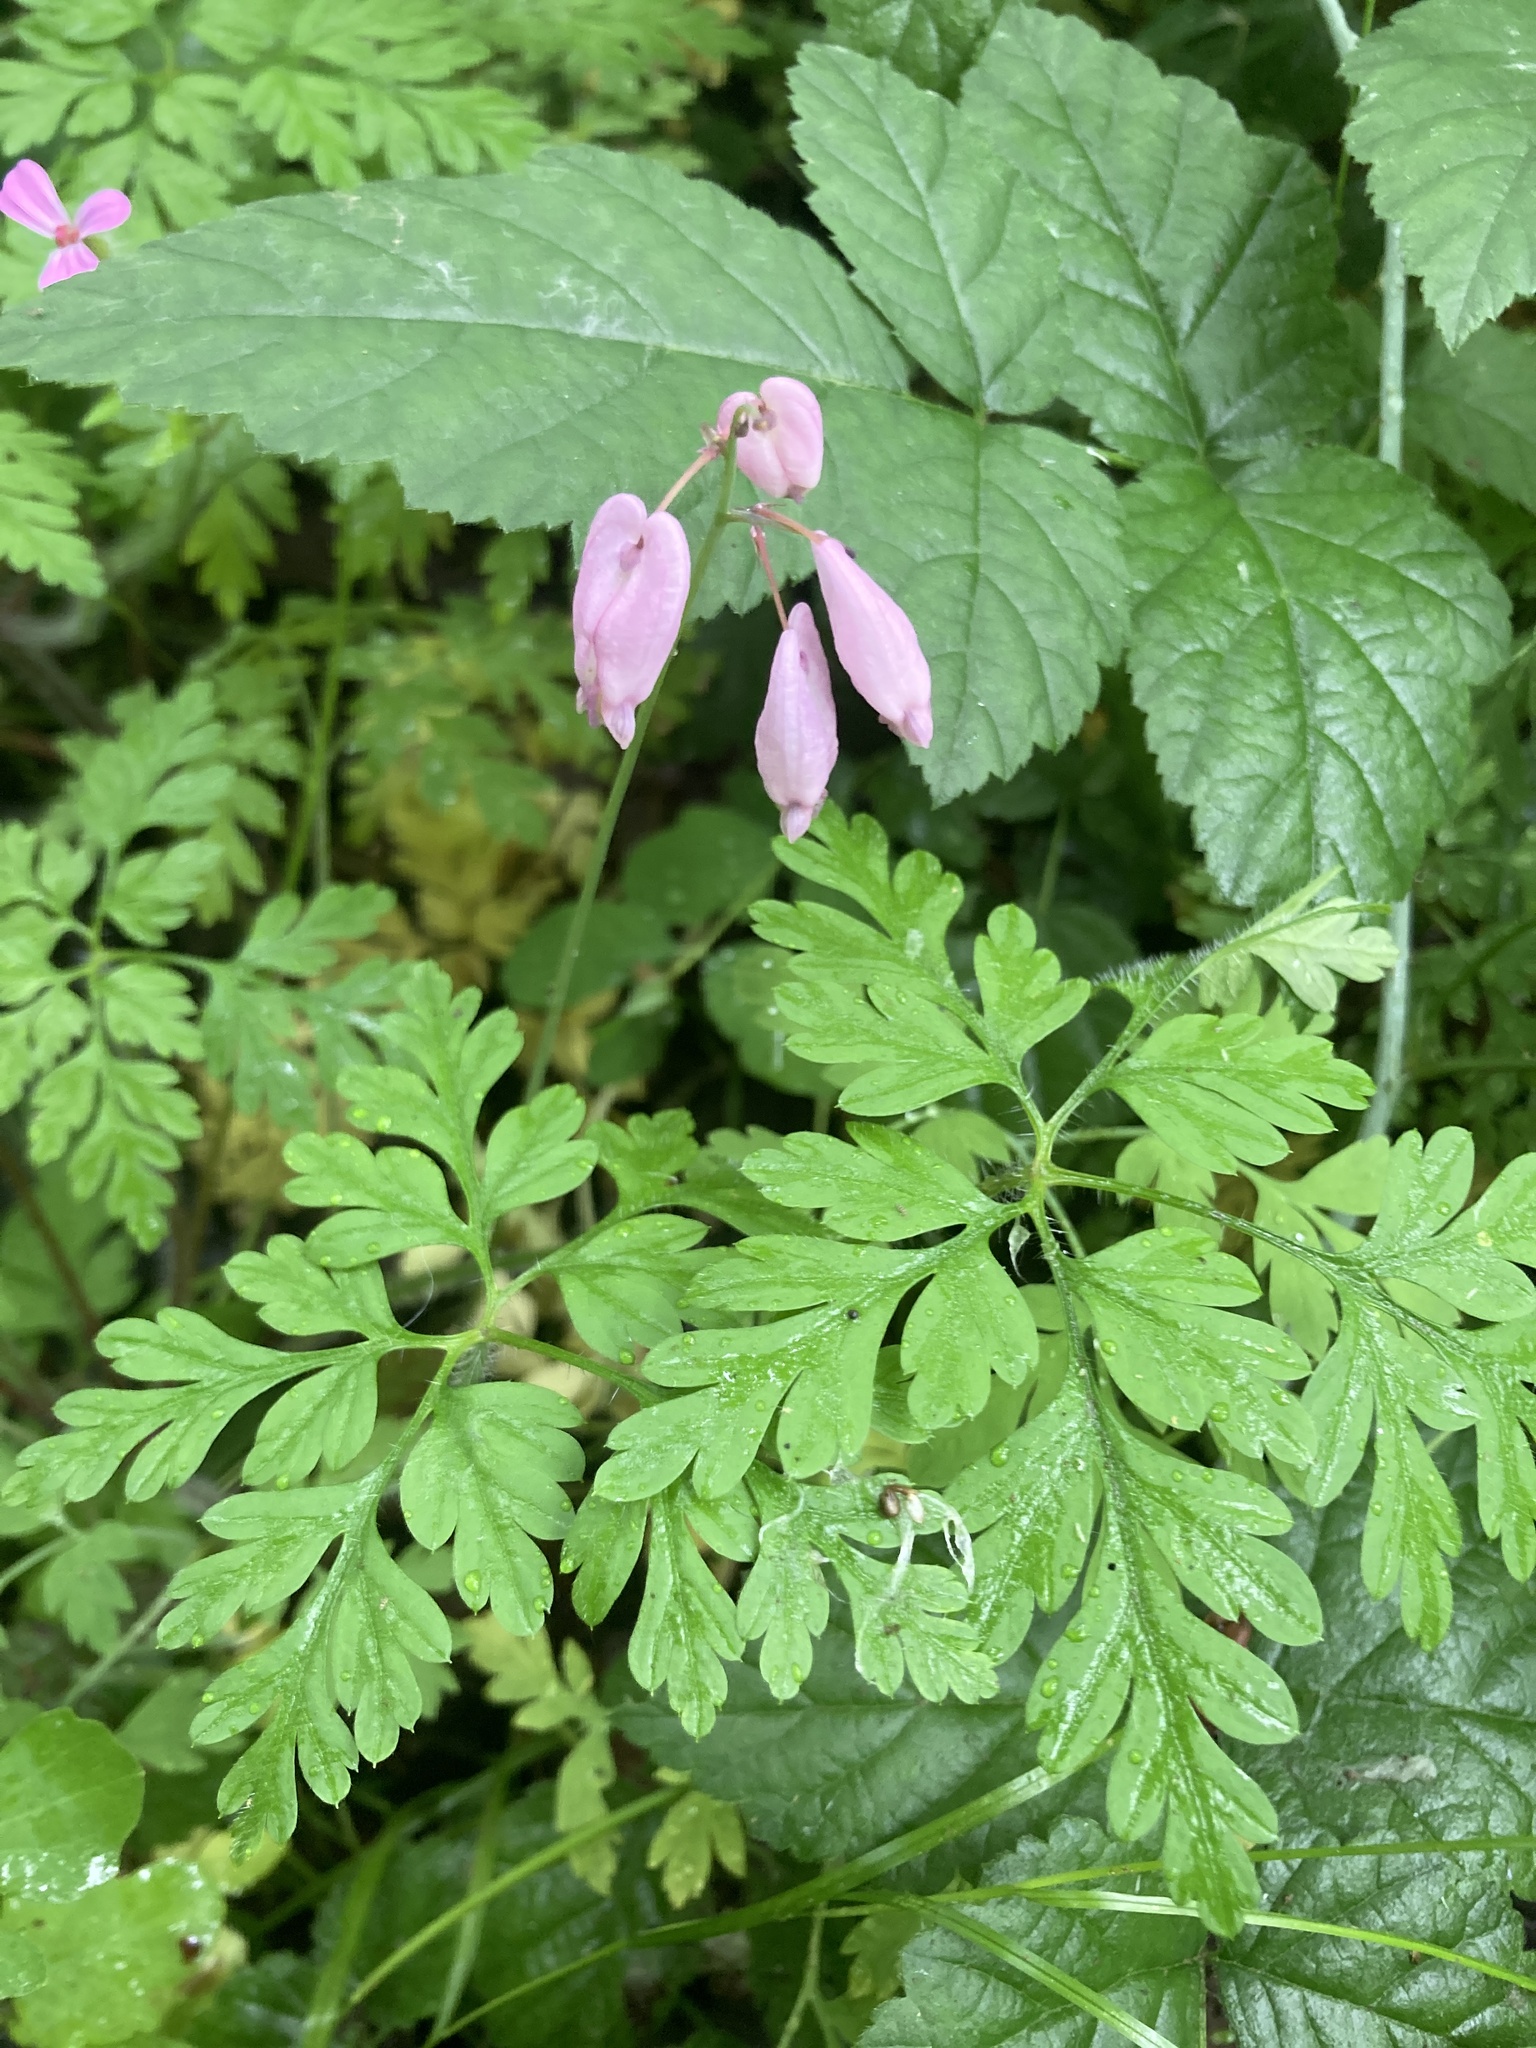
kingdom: Plantae
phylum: Tracheophyta
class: Magnoliopsida
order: Ranunculales
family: Papaveraceae
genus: Dicentra
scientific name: Dicentra formosa
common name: Bleeding-heart
